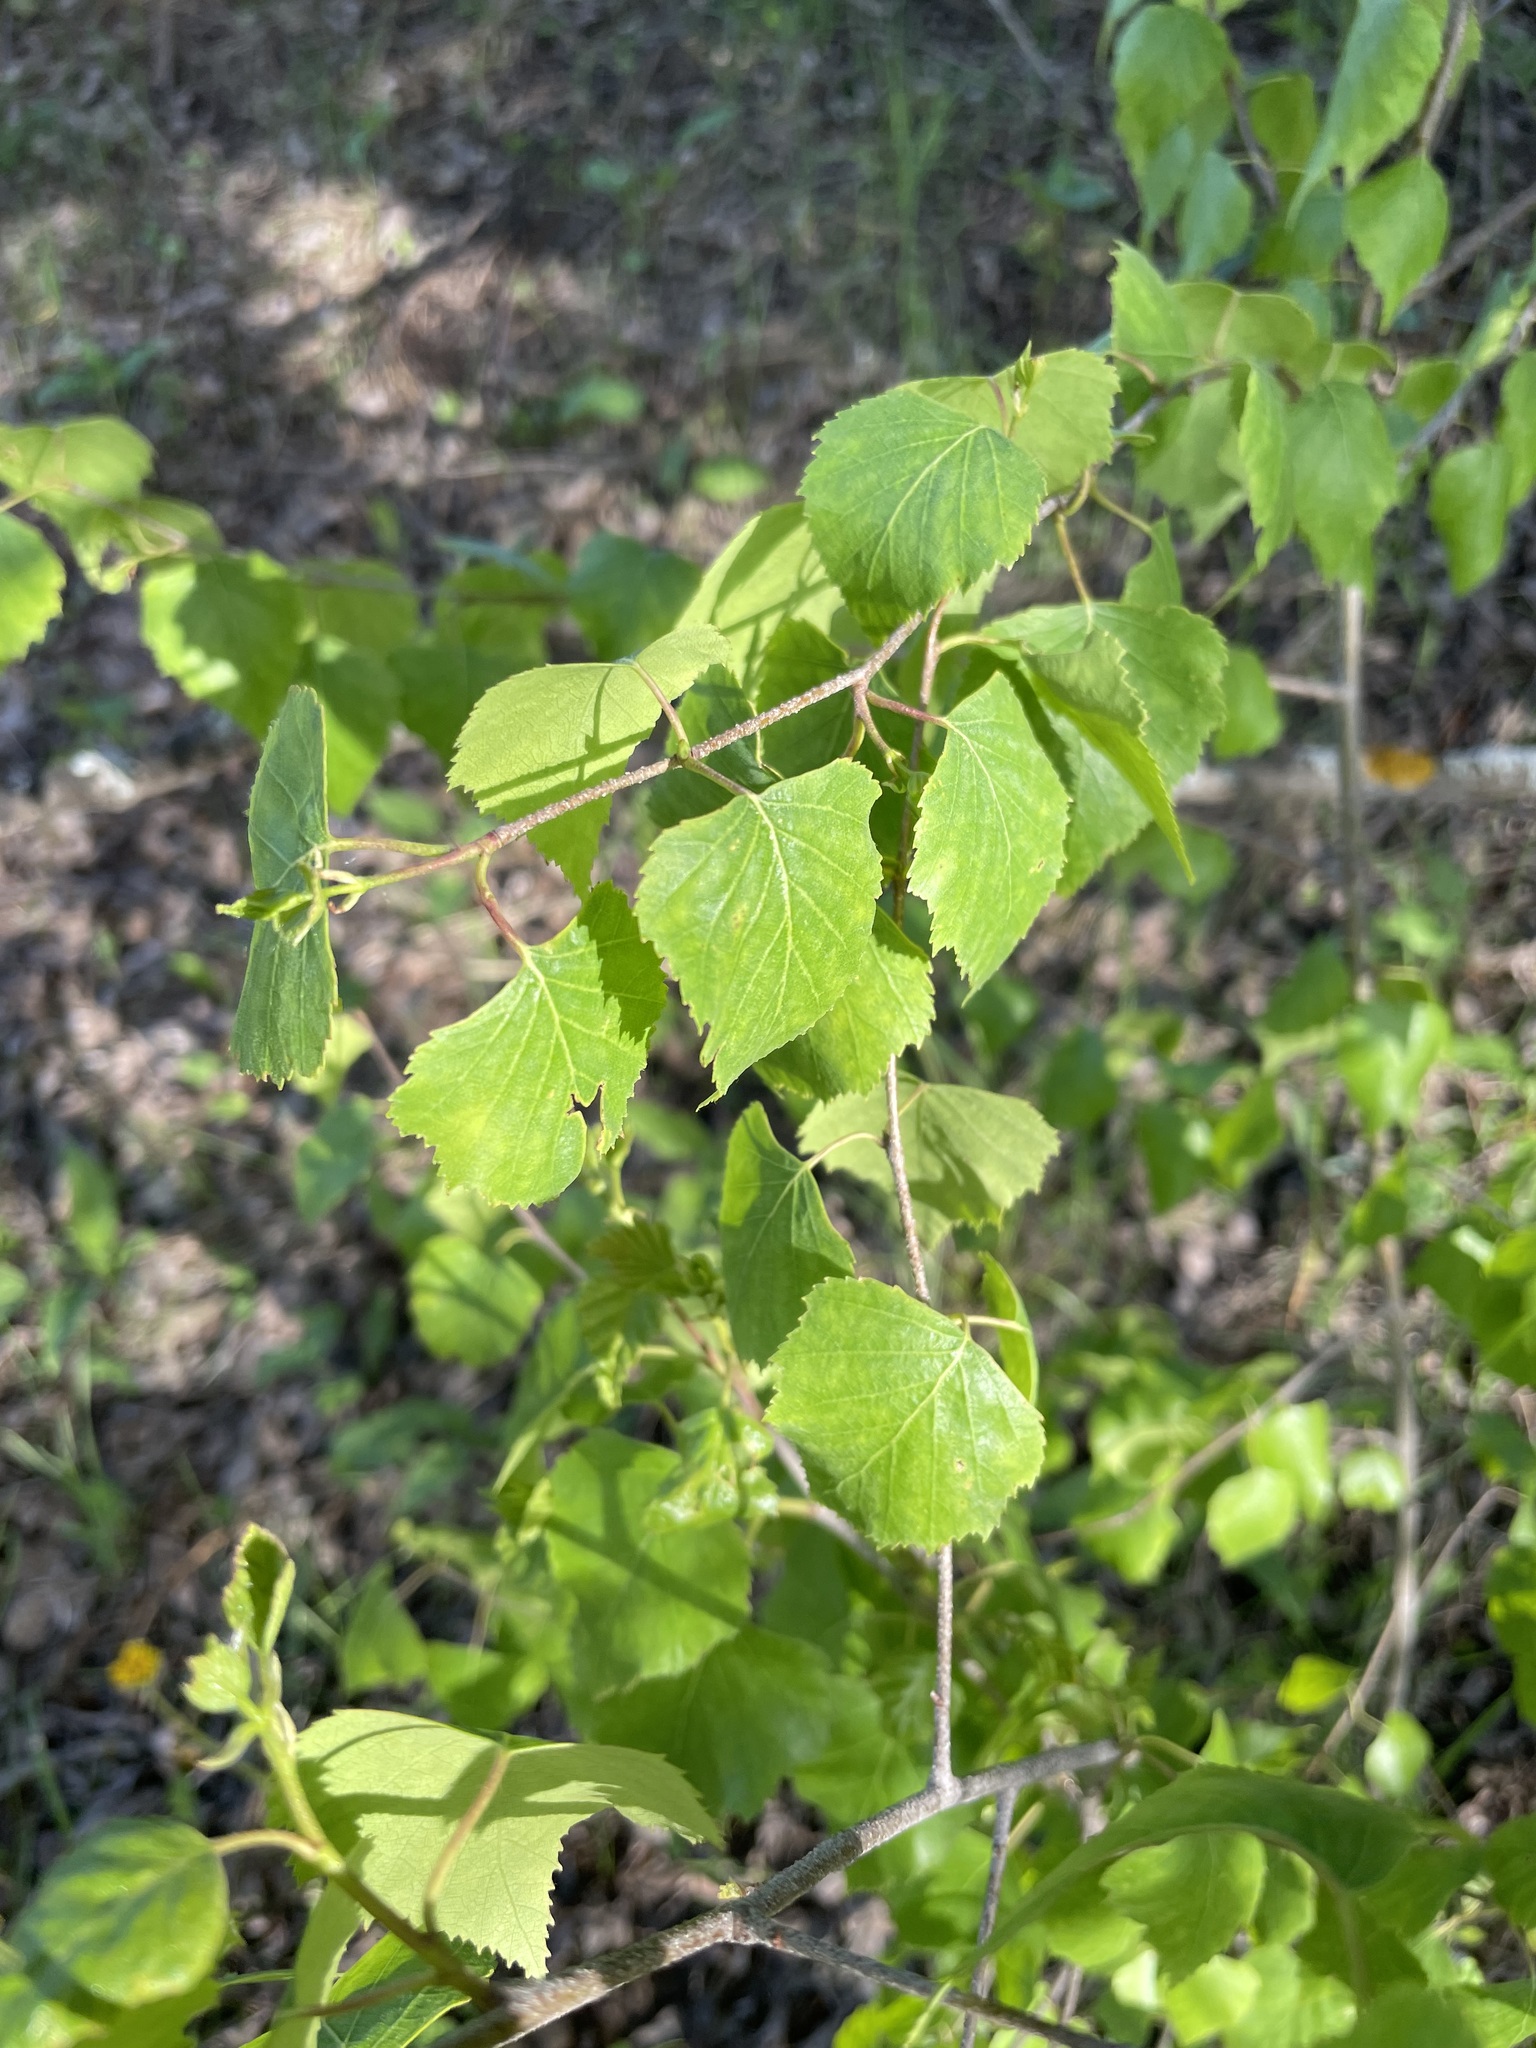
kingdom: Plantae
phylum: Tracheophyta
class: Magnoliopsida
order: Fagales
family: Betulaceae
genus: Betula
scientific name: Betula pendula
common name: Silver birch
